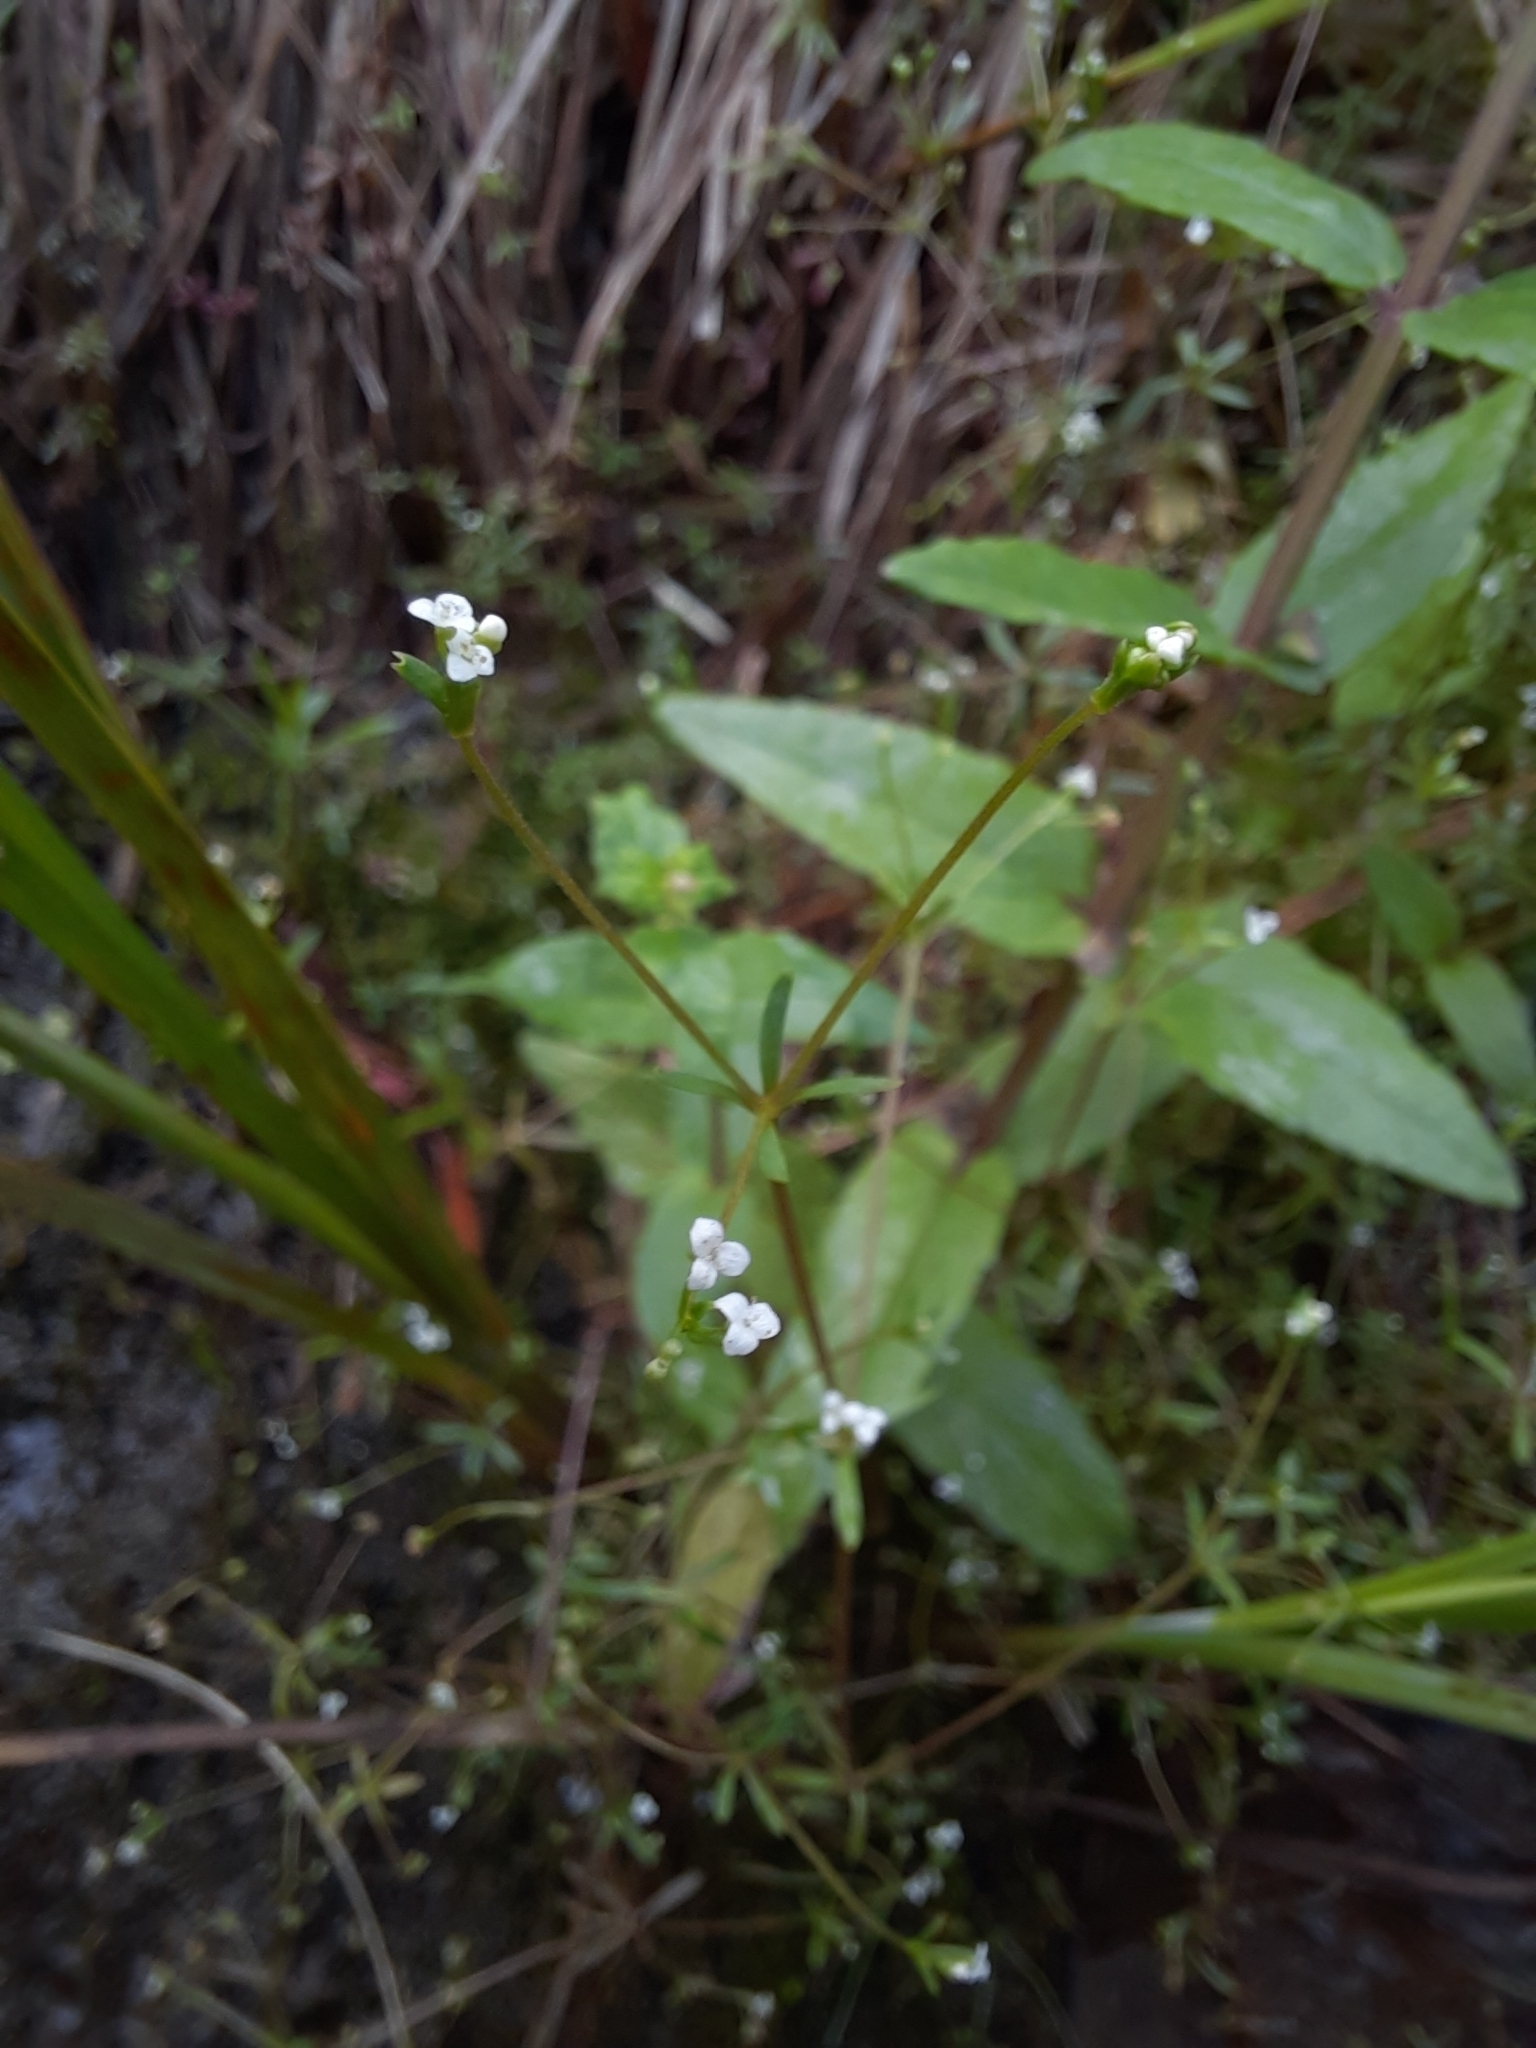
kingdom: Plantae
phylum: Tracheophyta
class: Magnoliopsida
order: Gentianales
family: Rubiaceae
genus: Galium
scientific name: Galium trifidum
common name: Small bedstraw
